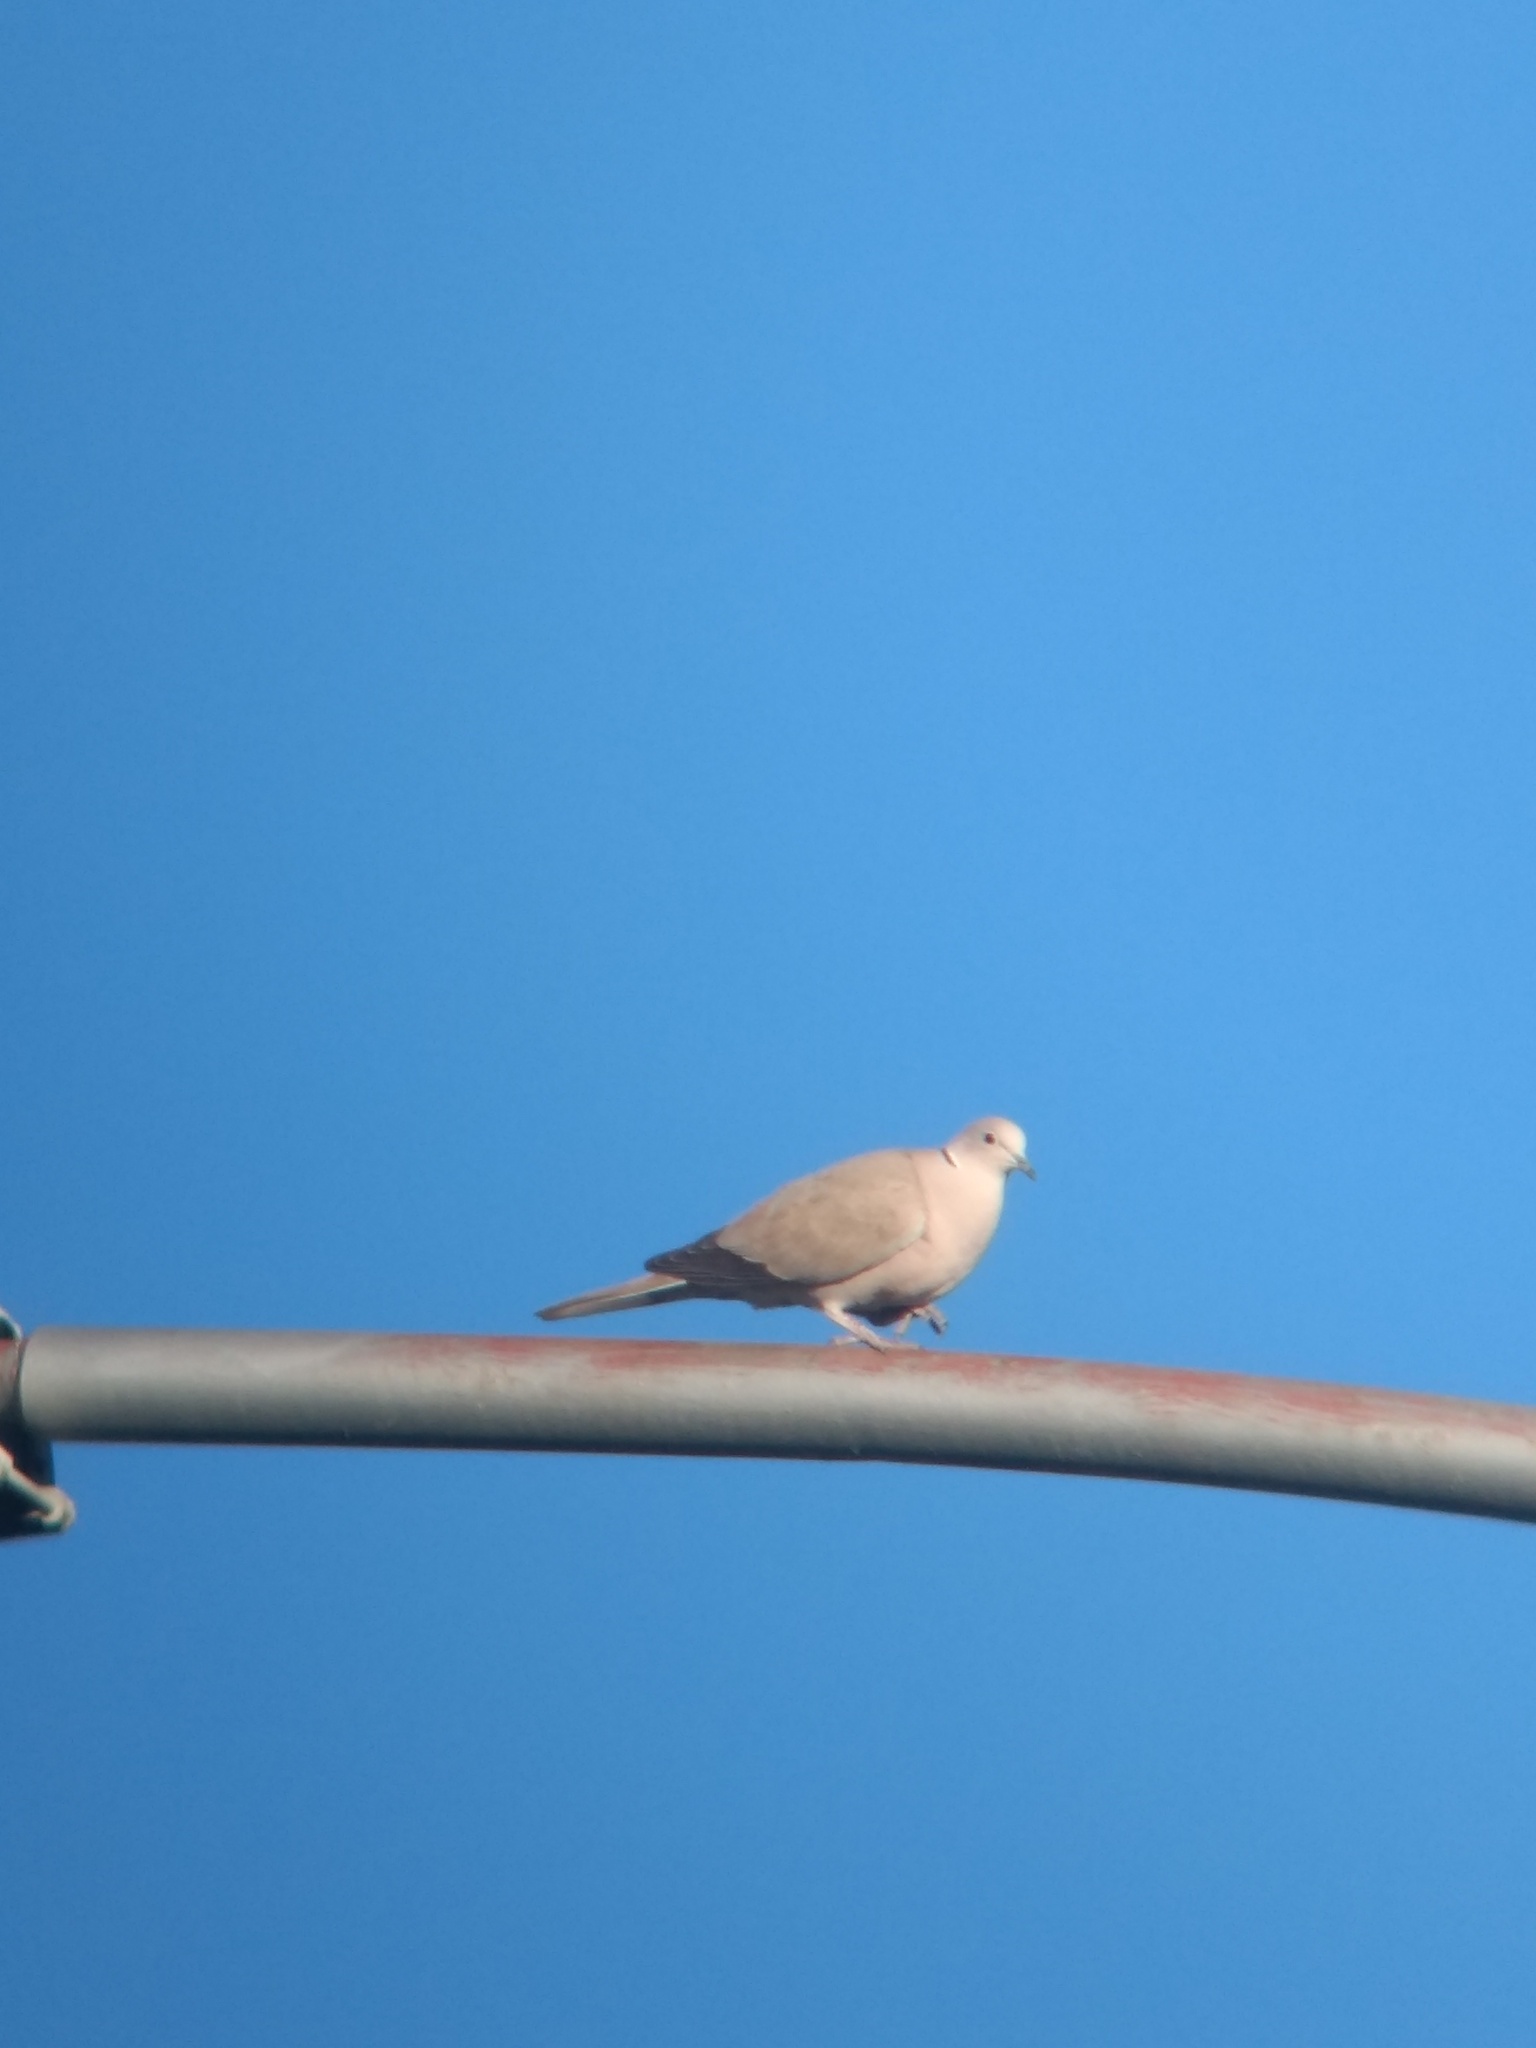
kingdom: Animalia
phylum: Chordata
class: Aves
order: Columbiformes
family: Columbidae
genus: Streptopelia
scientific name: Streptopelia decaocto
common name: Eurasian collared dove
